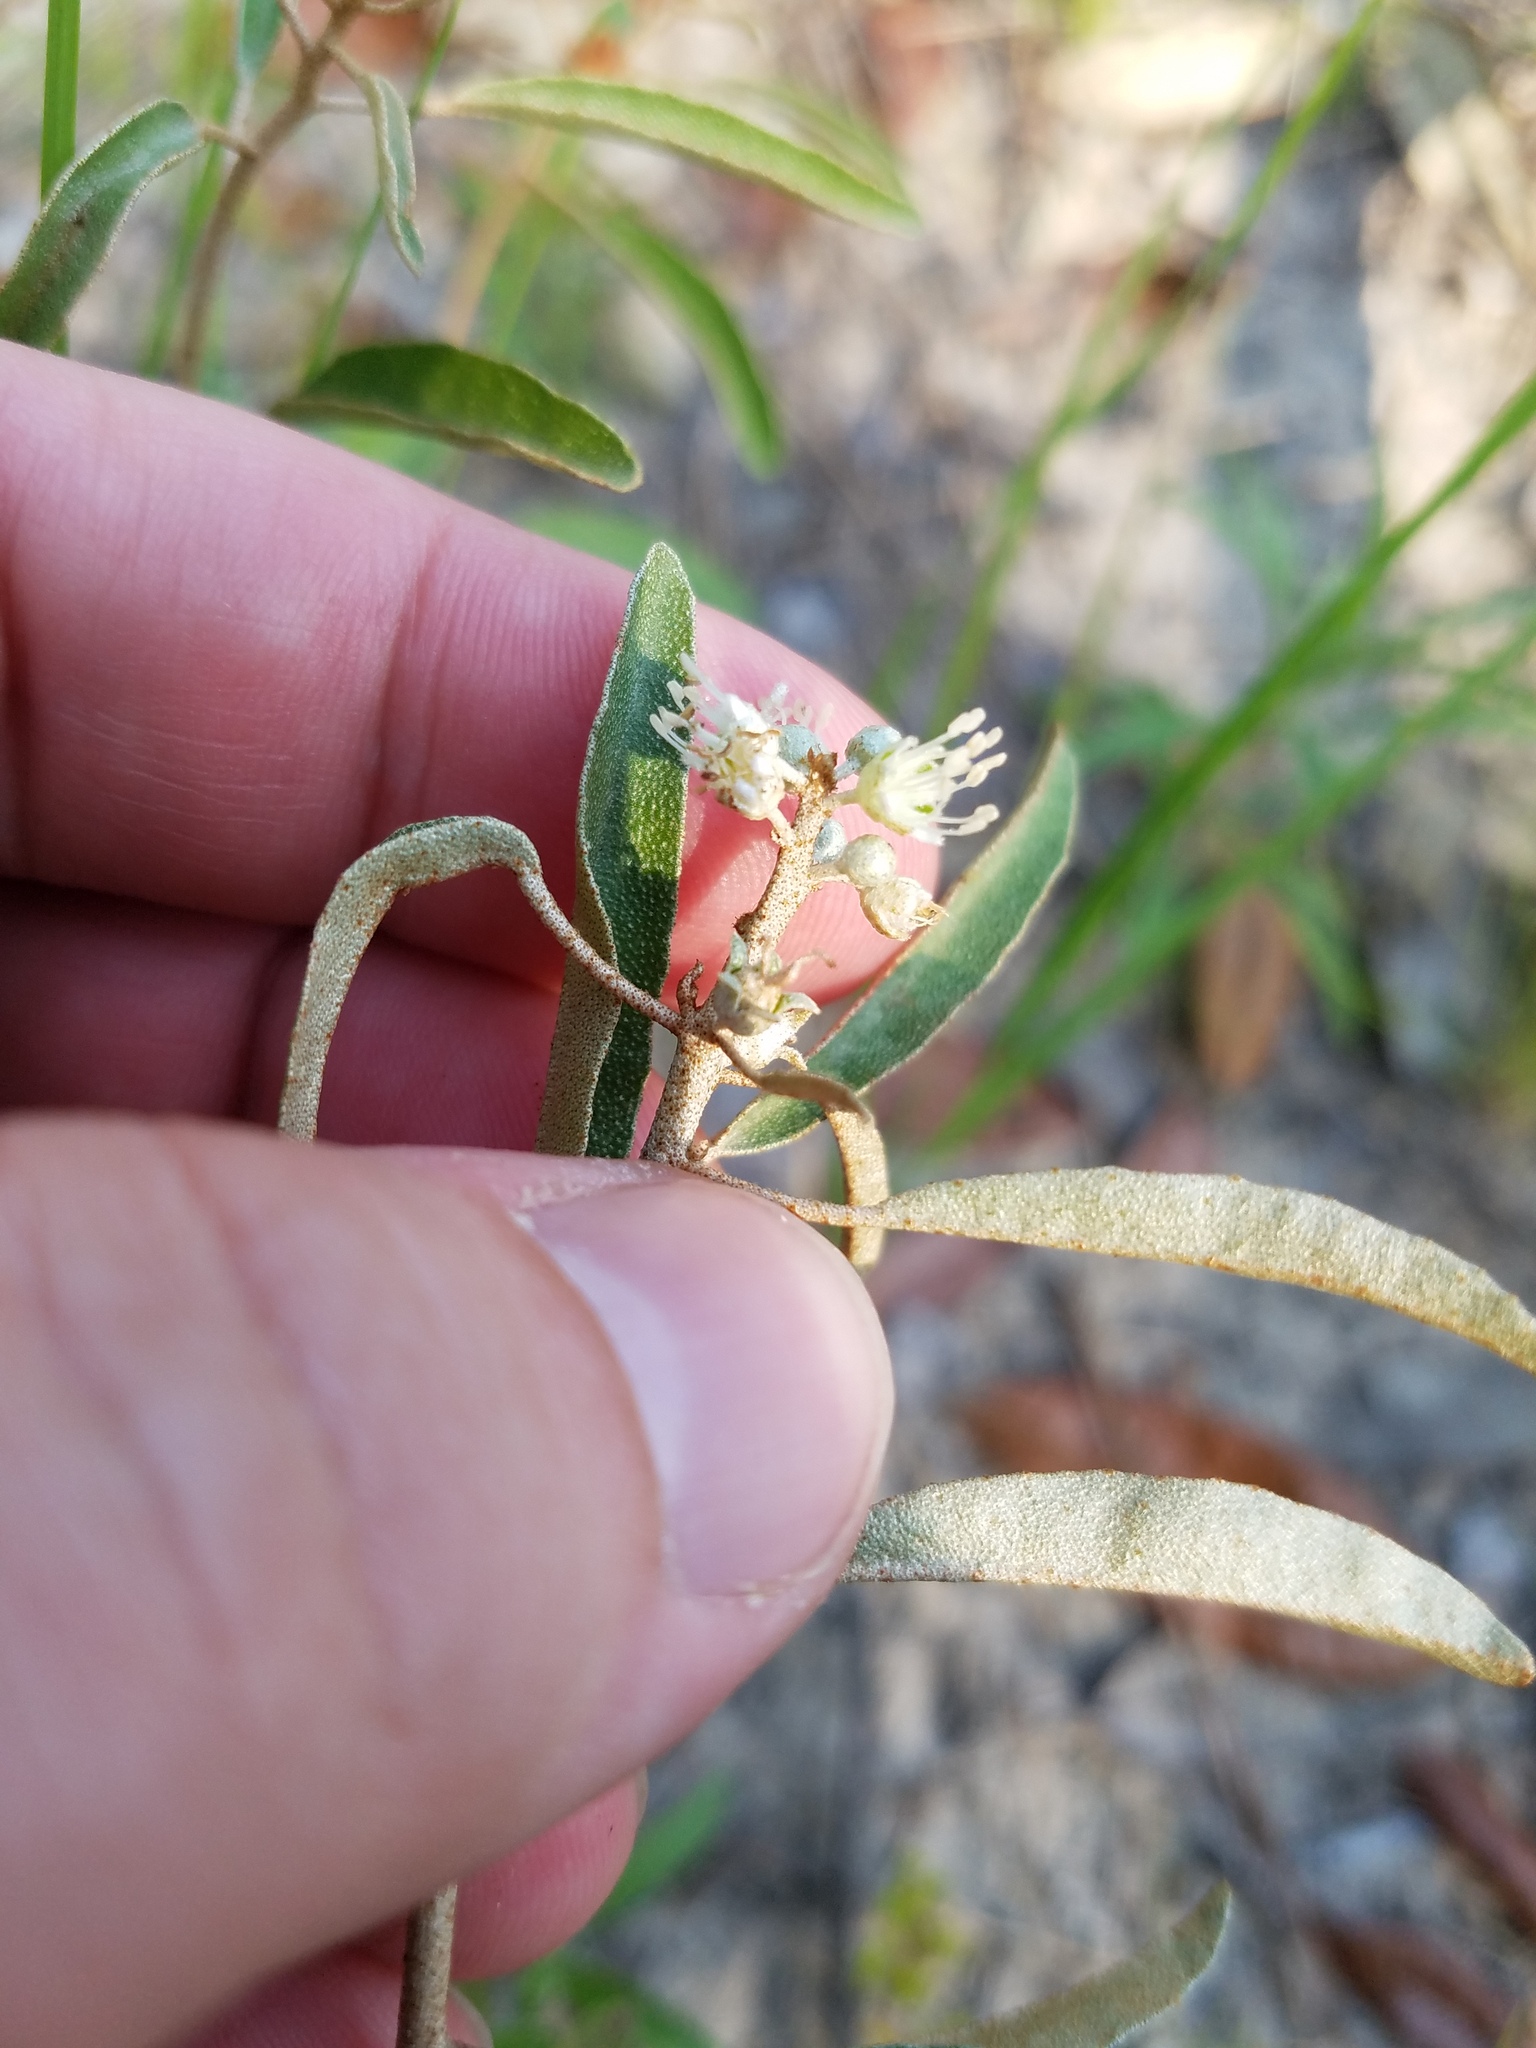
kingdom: Plantae
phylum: Tracheophyta
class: Magnoliopsida
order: Malpighiales
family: Euphorbiaceae
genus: Croton
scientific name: Croton argyranthemus
